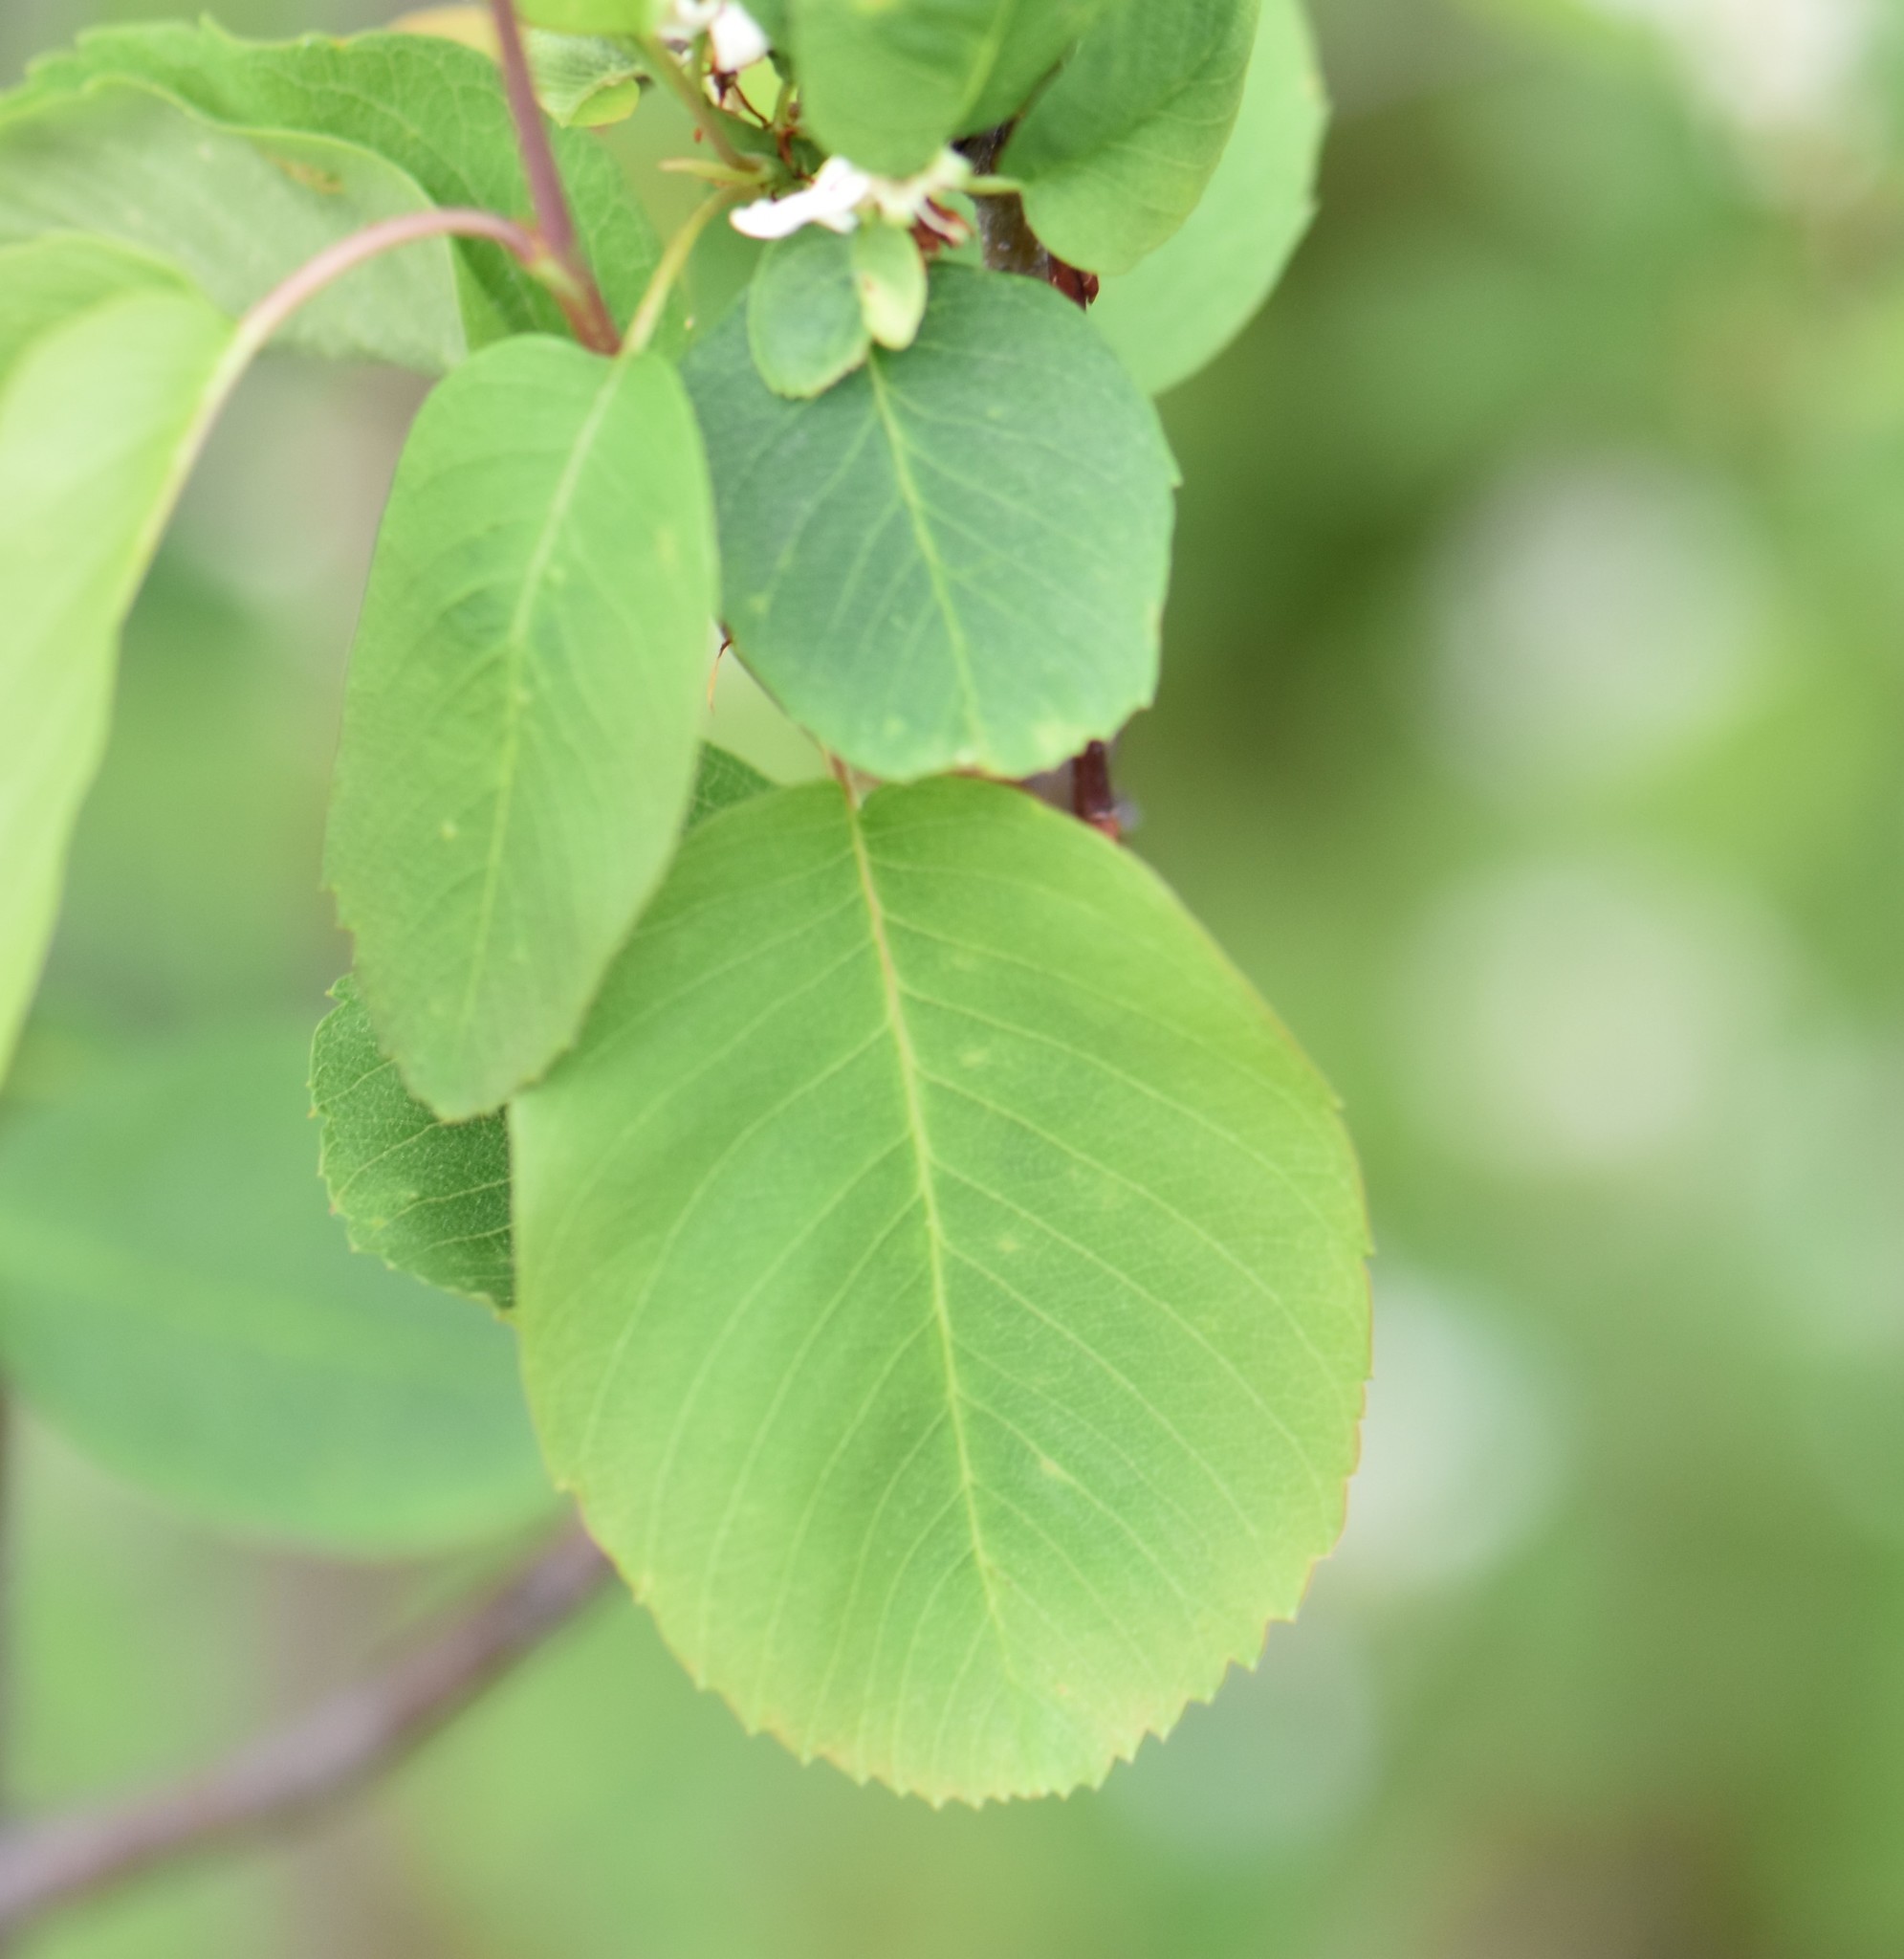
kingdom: Plantae
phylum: Tracheophyta
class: Magnoliopsida
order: Rosales
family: Rosaceae
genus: Amelanchier
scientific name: Amelanchier alnifolia
